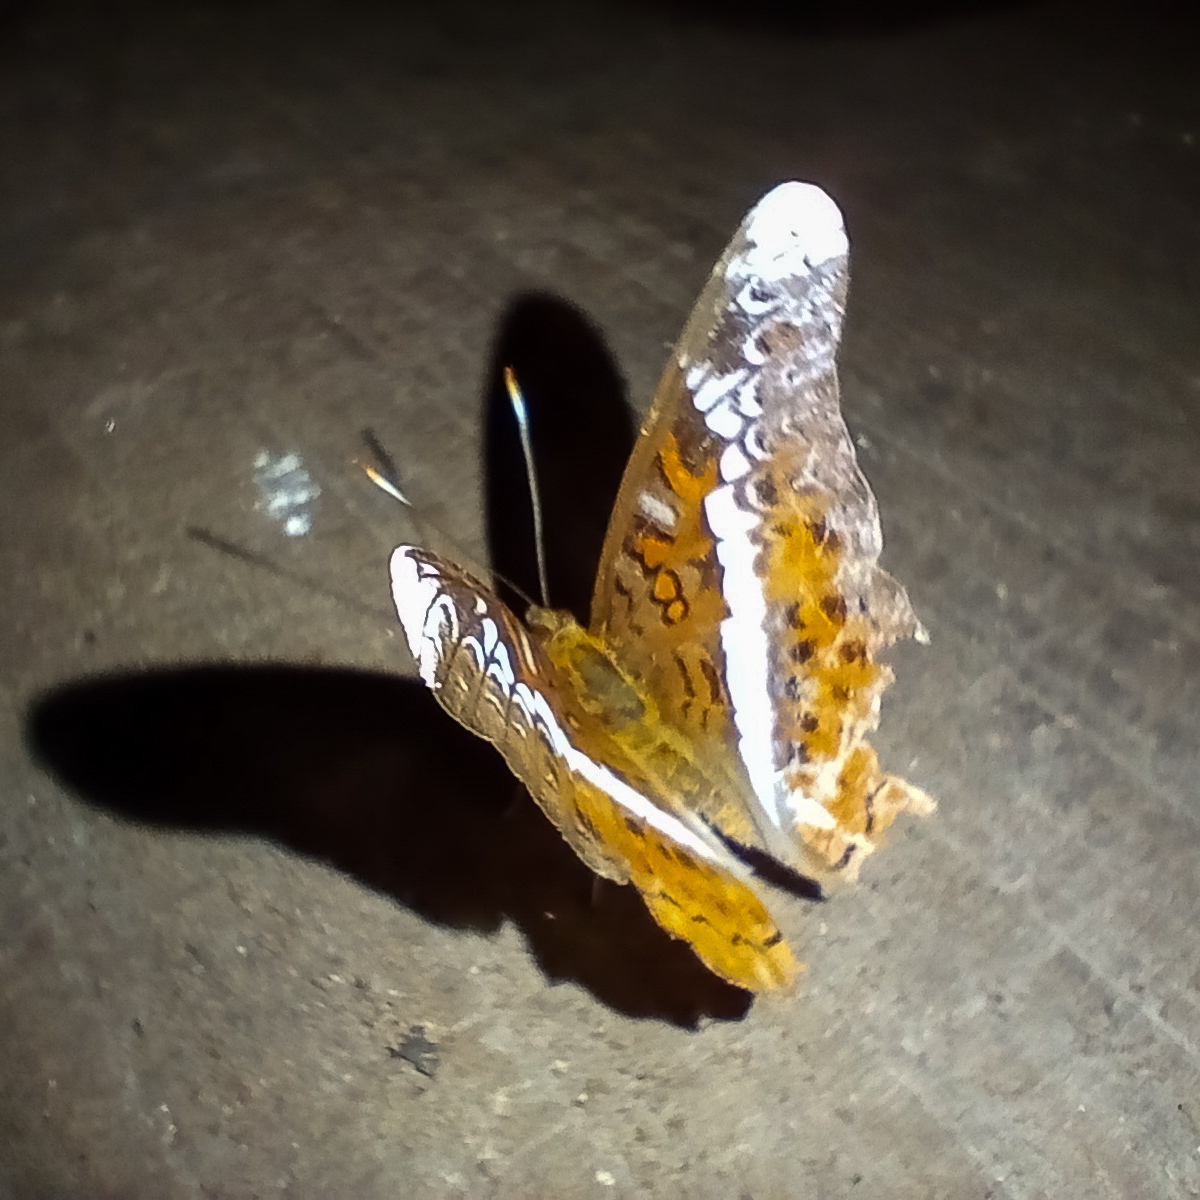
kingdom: Animalia
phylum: Arthropoda
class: Insecta
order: Lepidoptera
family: Nymphalidae
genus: Lebadea
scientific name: Lebadea martha
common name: Knight
